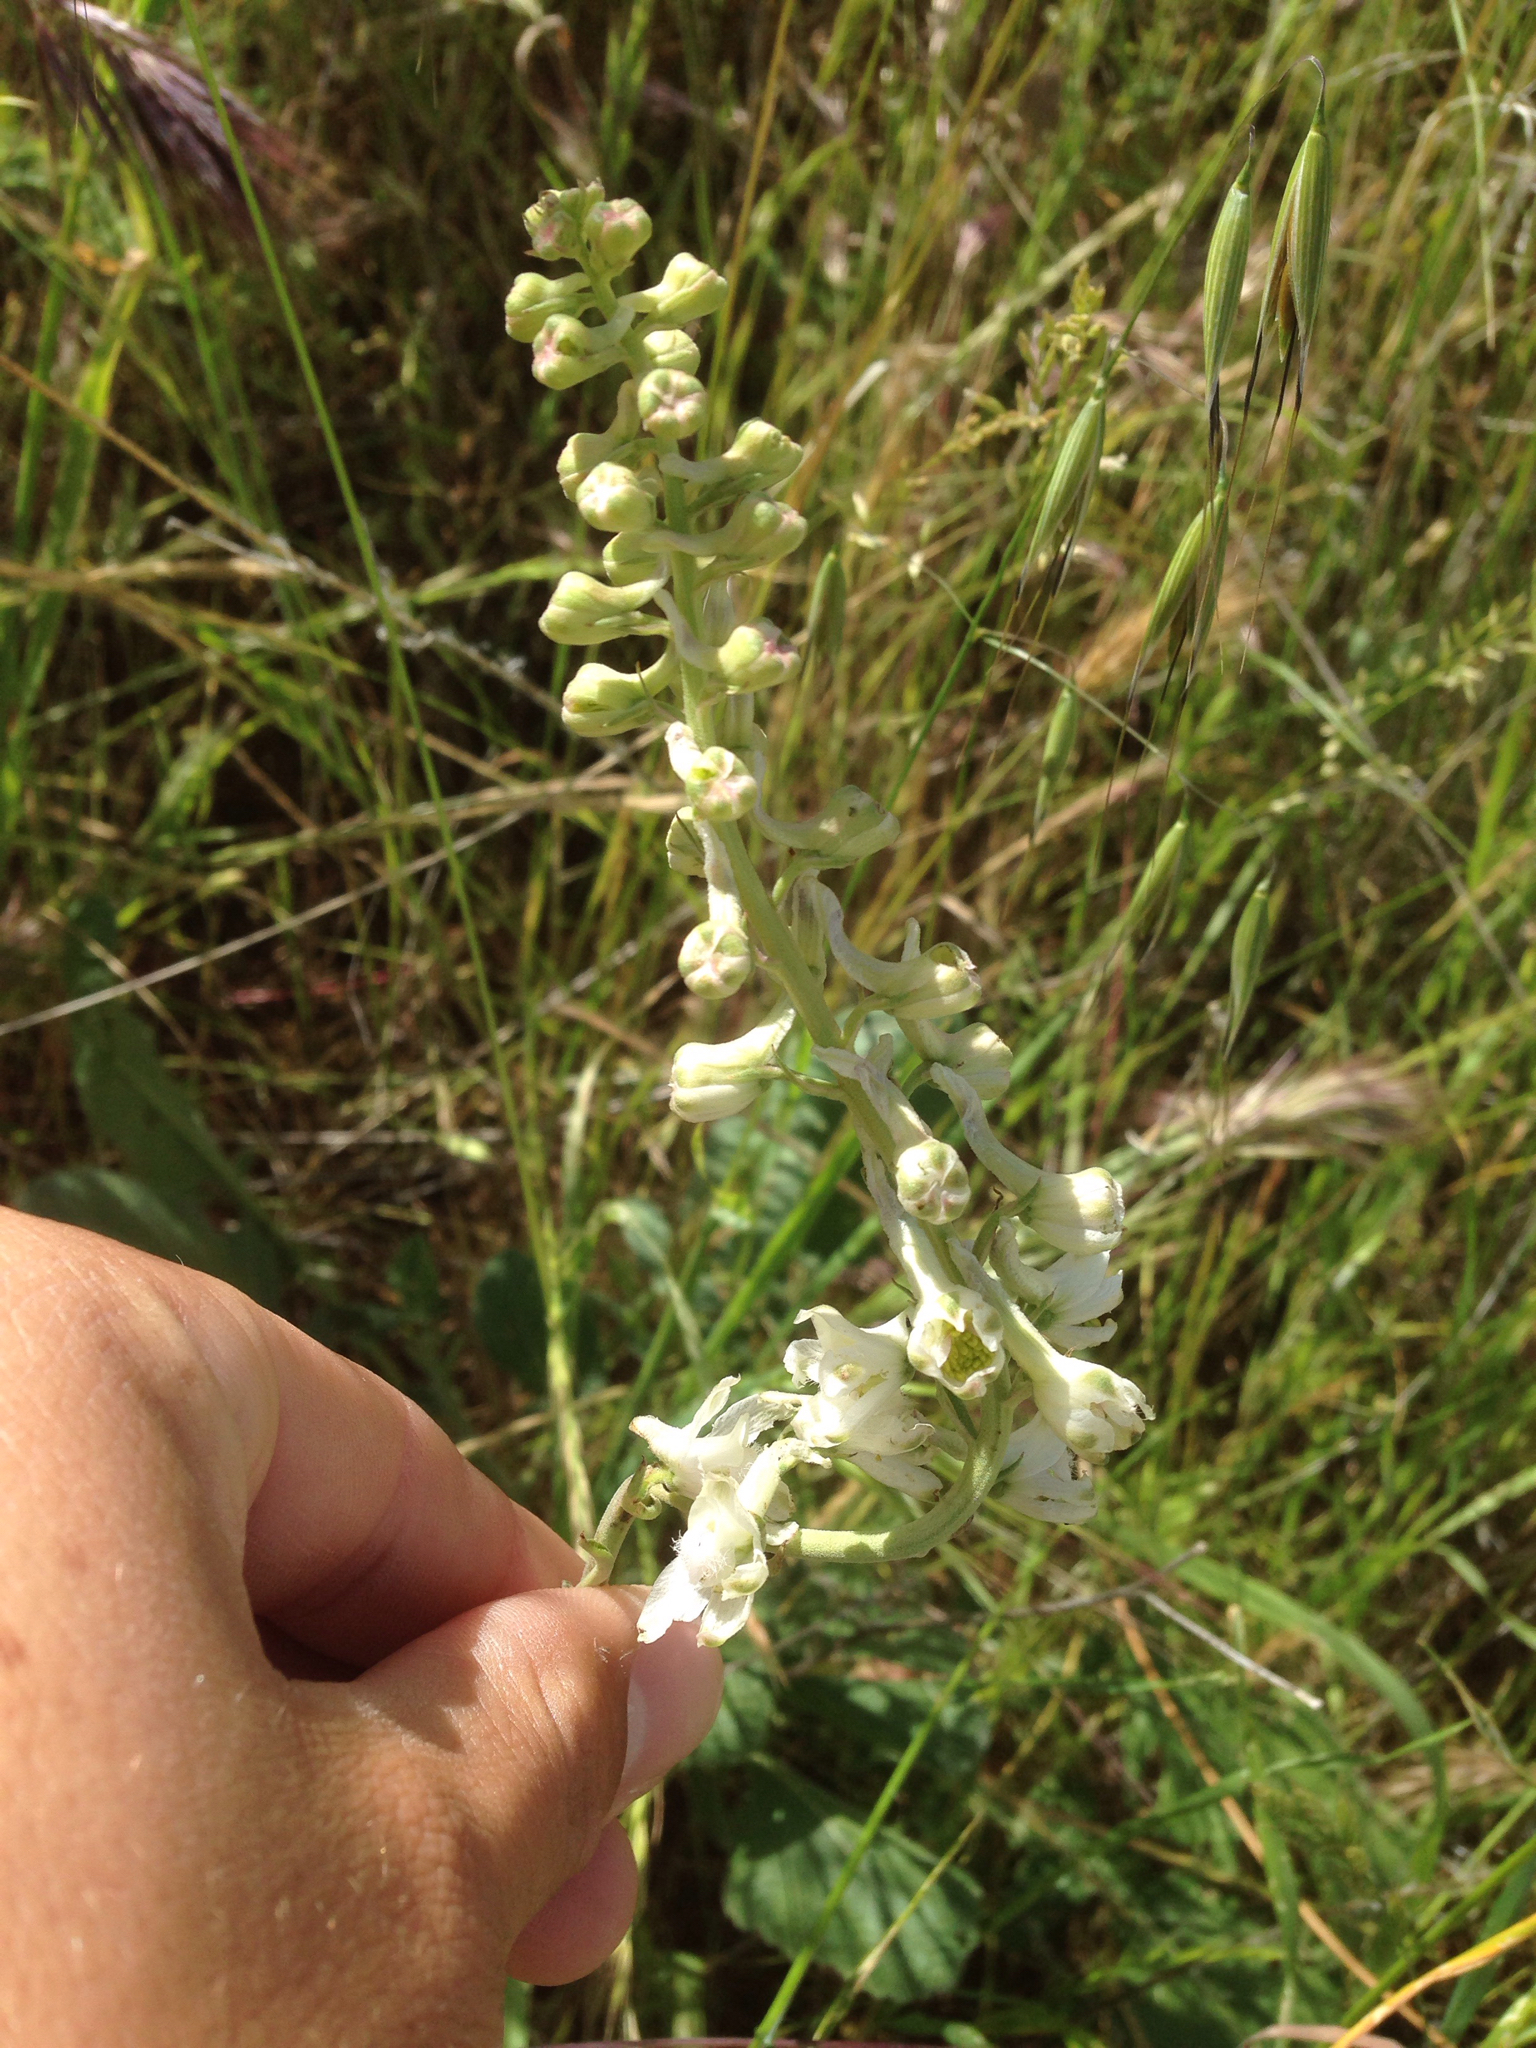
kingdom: Plantae
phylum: Tracheophyta
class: Magnoliopsida
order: Ranunculales
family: Ranunculaceae
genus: Delphinium
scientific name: Delphinium gypsophilum
